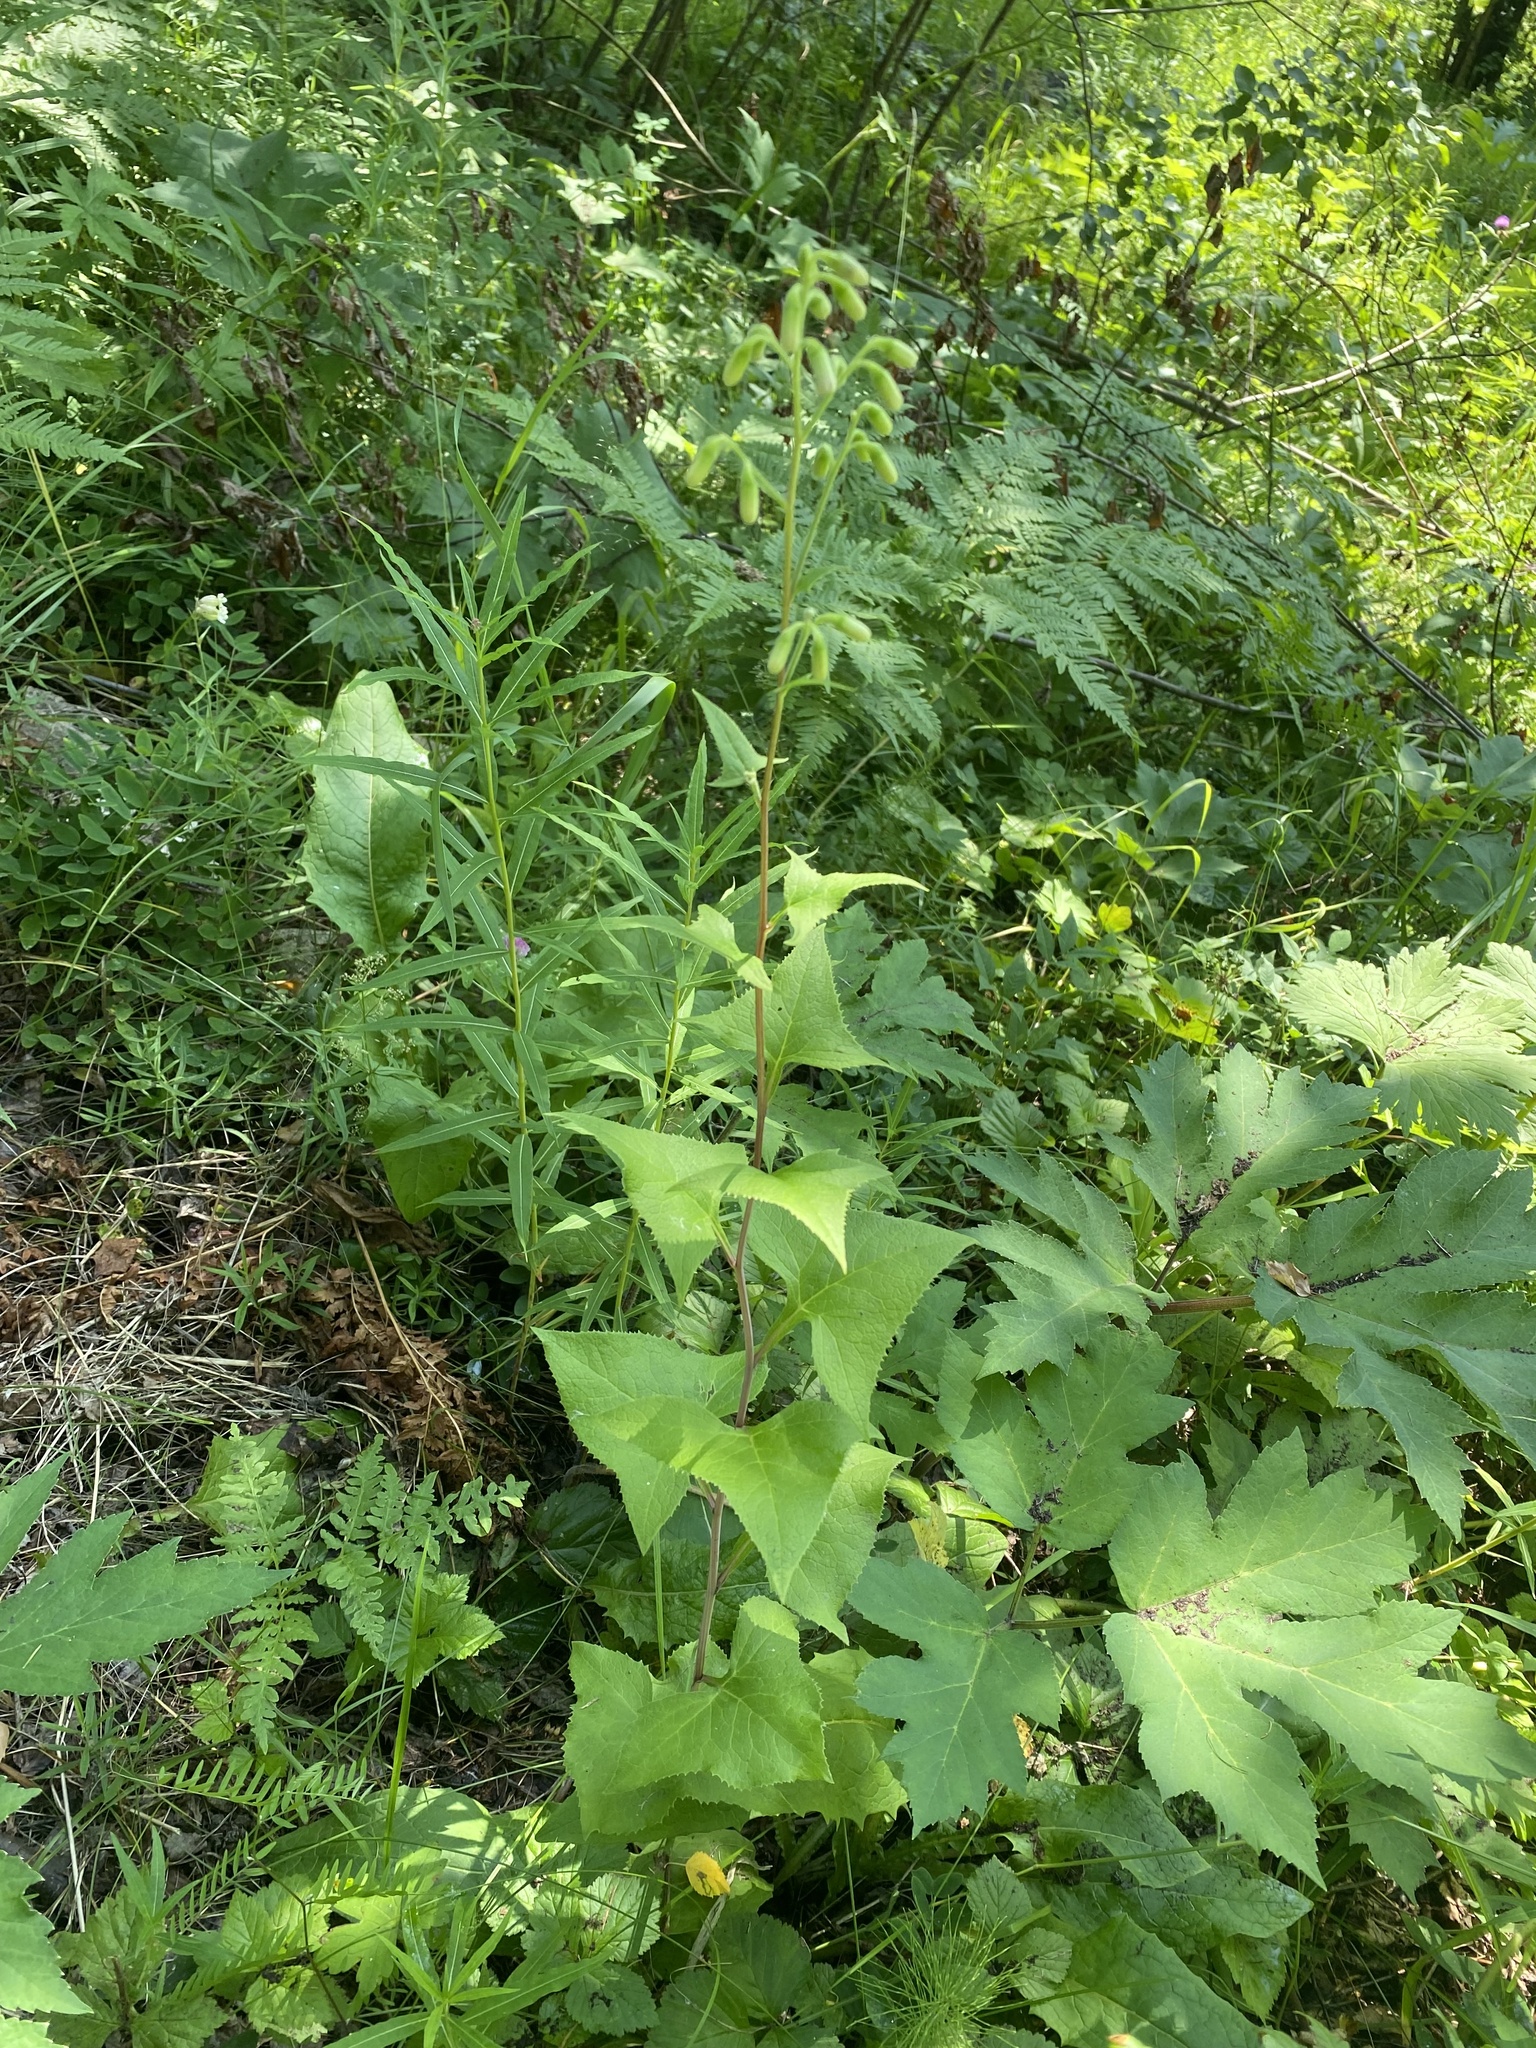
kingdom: Plantae
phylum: Tracheophyta
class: Magnoliopsida
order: Asterales
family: Asteraceae
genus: Parasenecio
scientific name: Parasenecio hastatus
